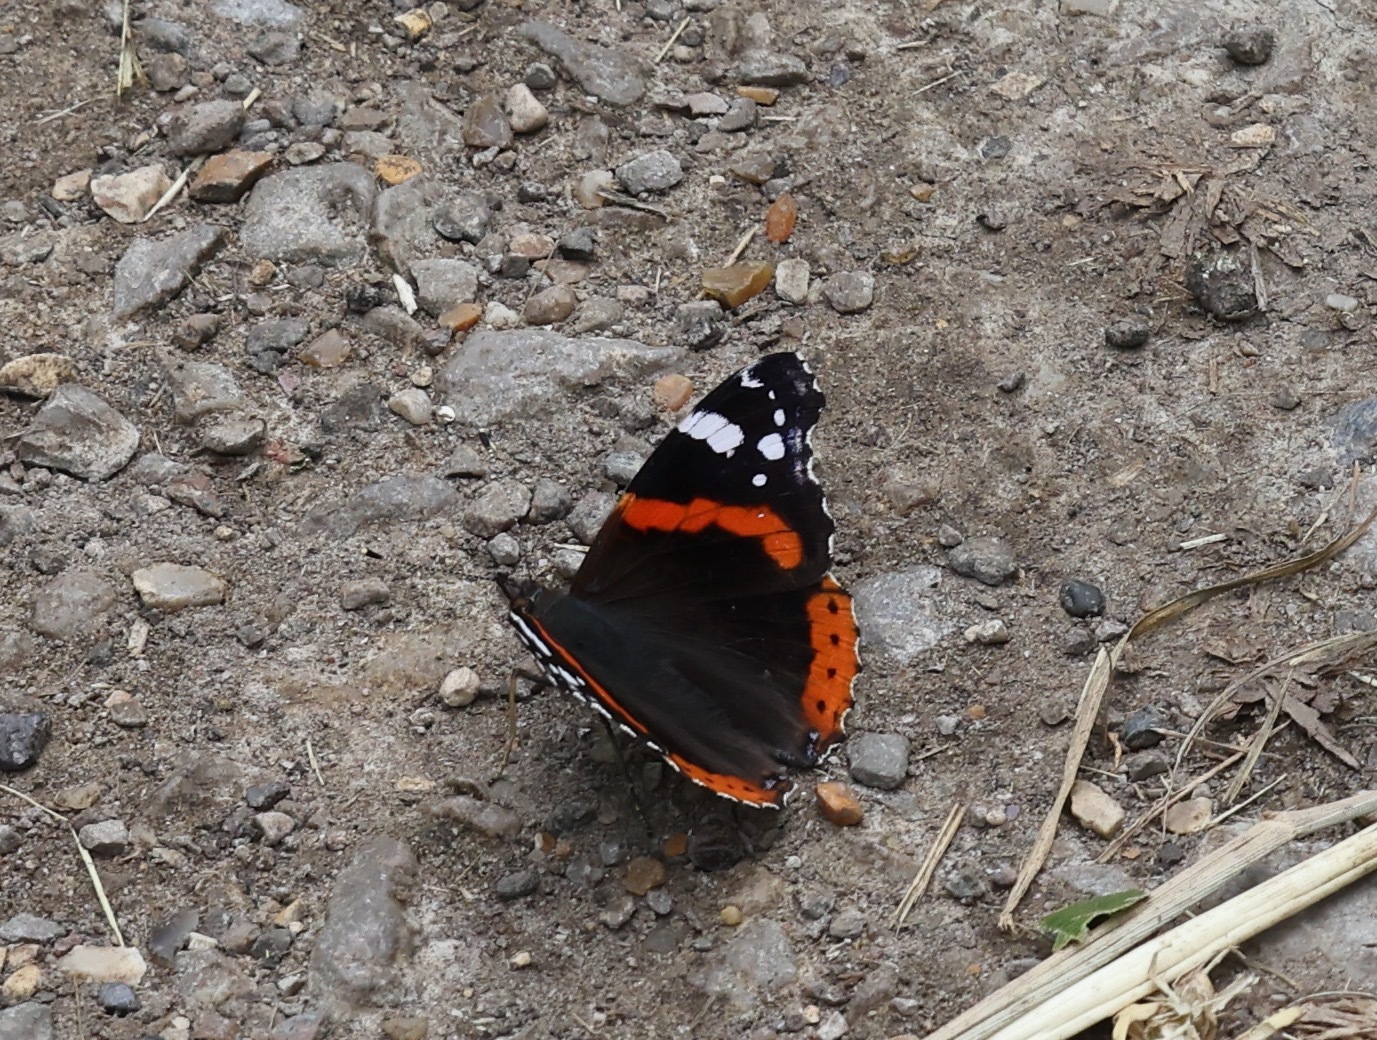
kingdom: Animalia
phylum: Arthropoda
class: Insecta
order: Lepidoptera
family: Nymphalidae
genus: Vanessa
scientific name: Vanessa atalanta
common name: Red admiral
